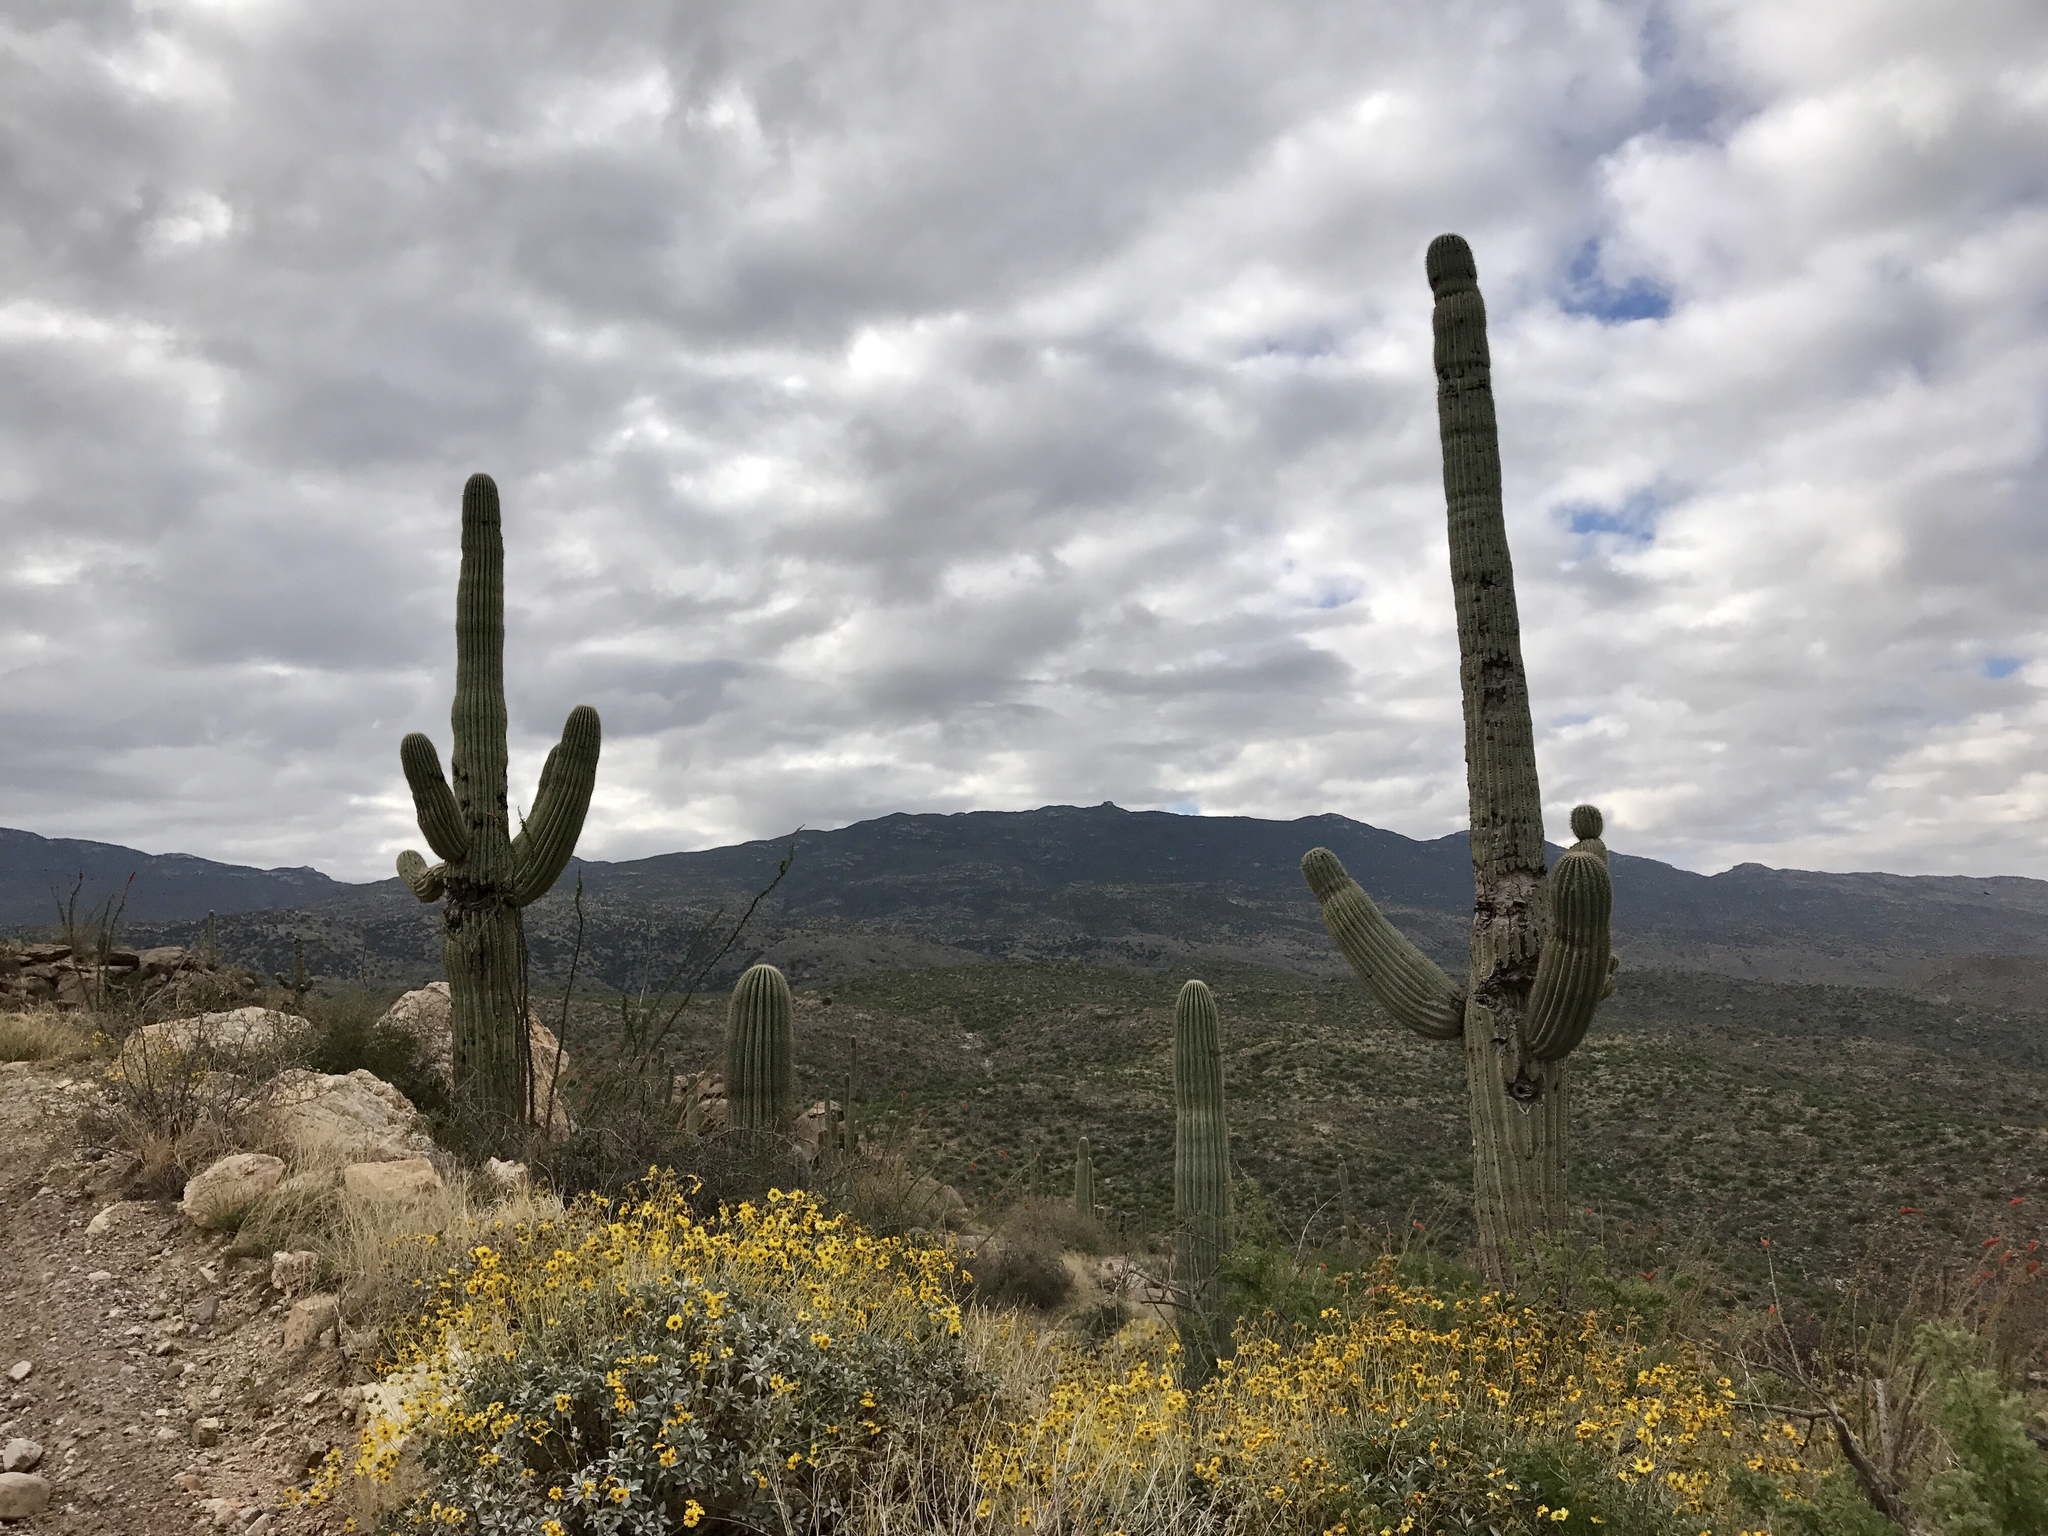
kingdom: Plantae
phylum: Tracheophyta
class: Magnoliopsida
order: Caryophyllales
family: Cactaceae
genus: Carnegiea
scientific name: Carnegiea gigantea
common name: Saguaro
